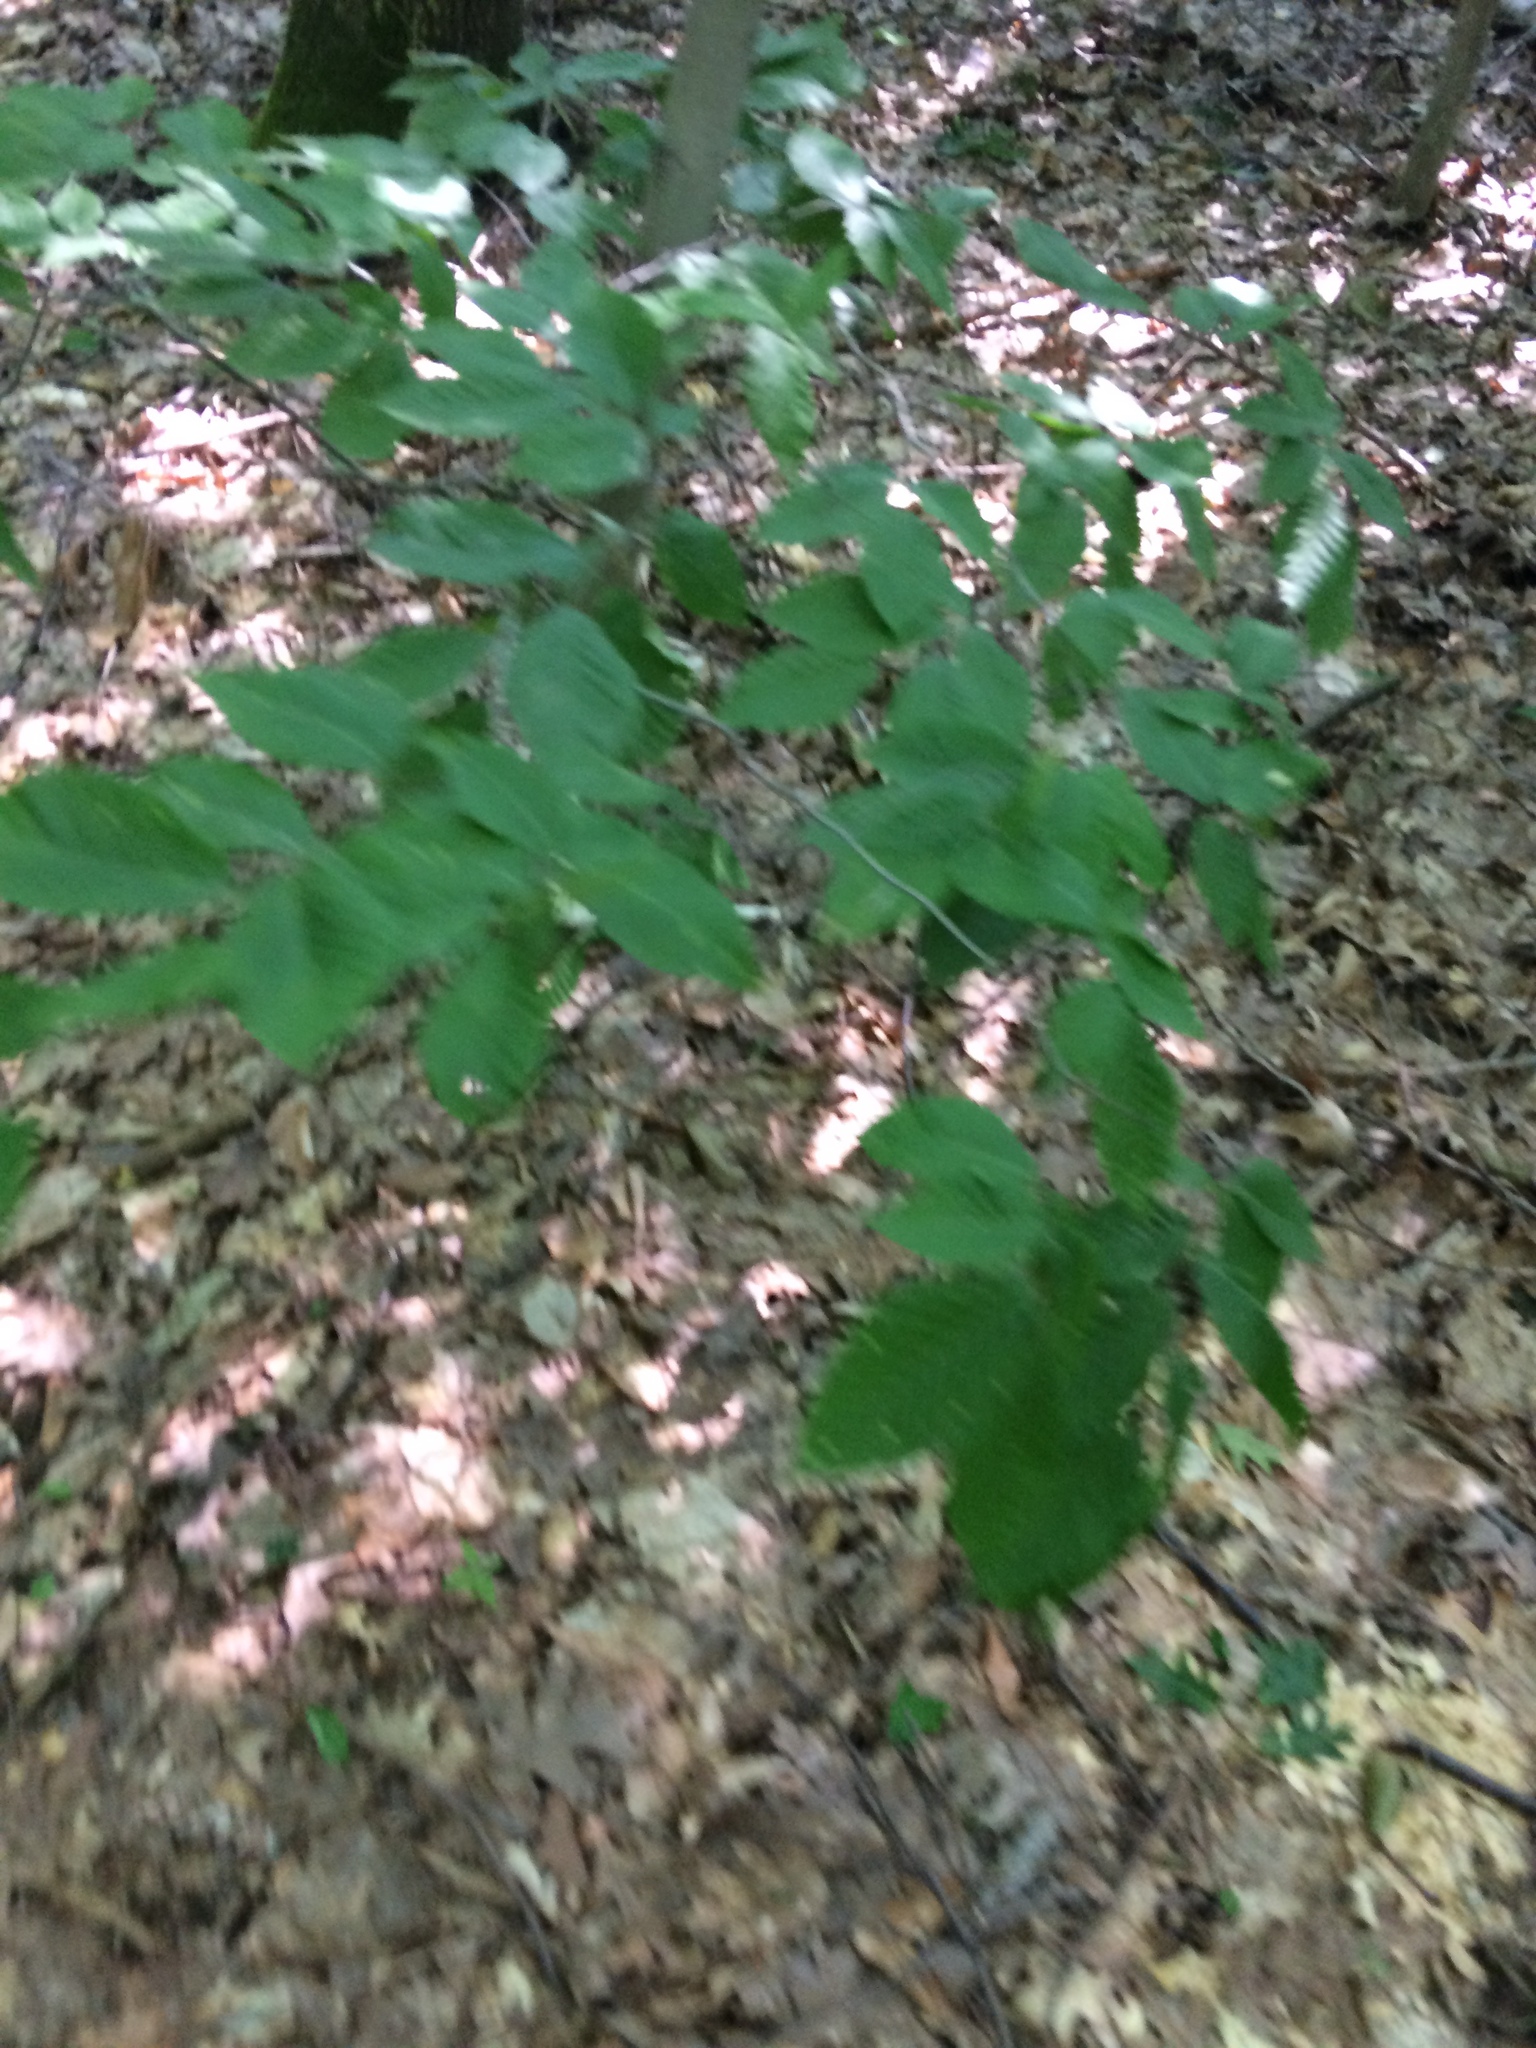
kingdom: Plantae
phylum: Tracheophyta
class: Magnoliopsida
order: Fagales
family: Fagaceae
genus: Fagus
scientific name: Fagus grandifolia
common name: American beech
